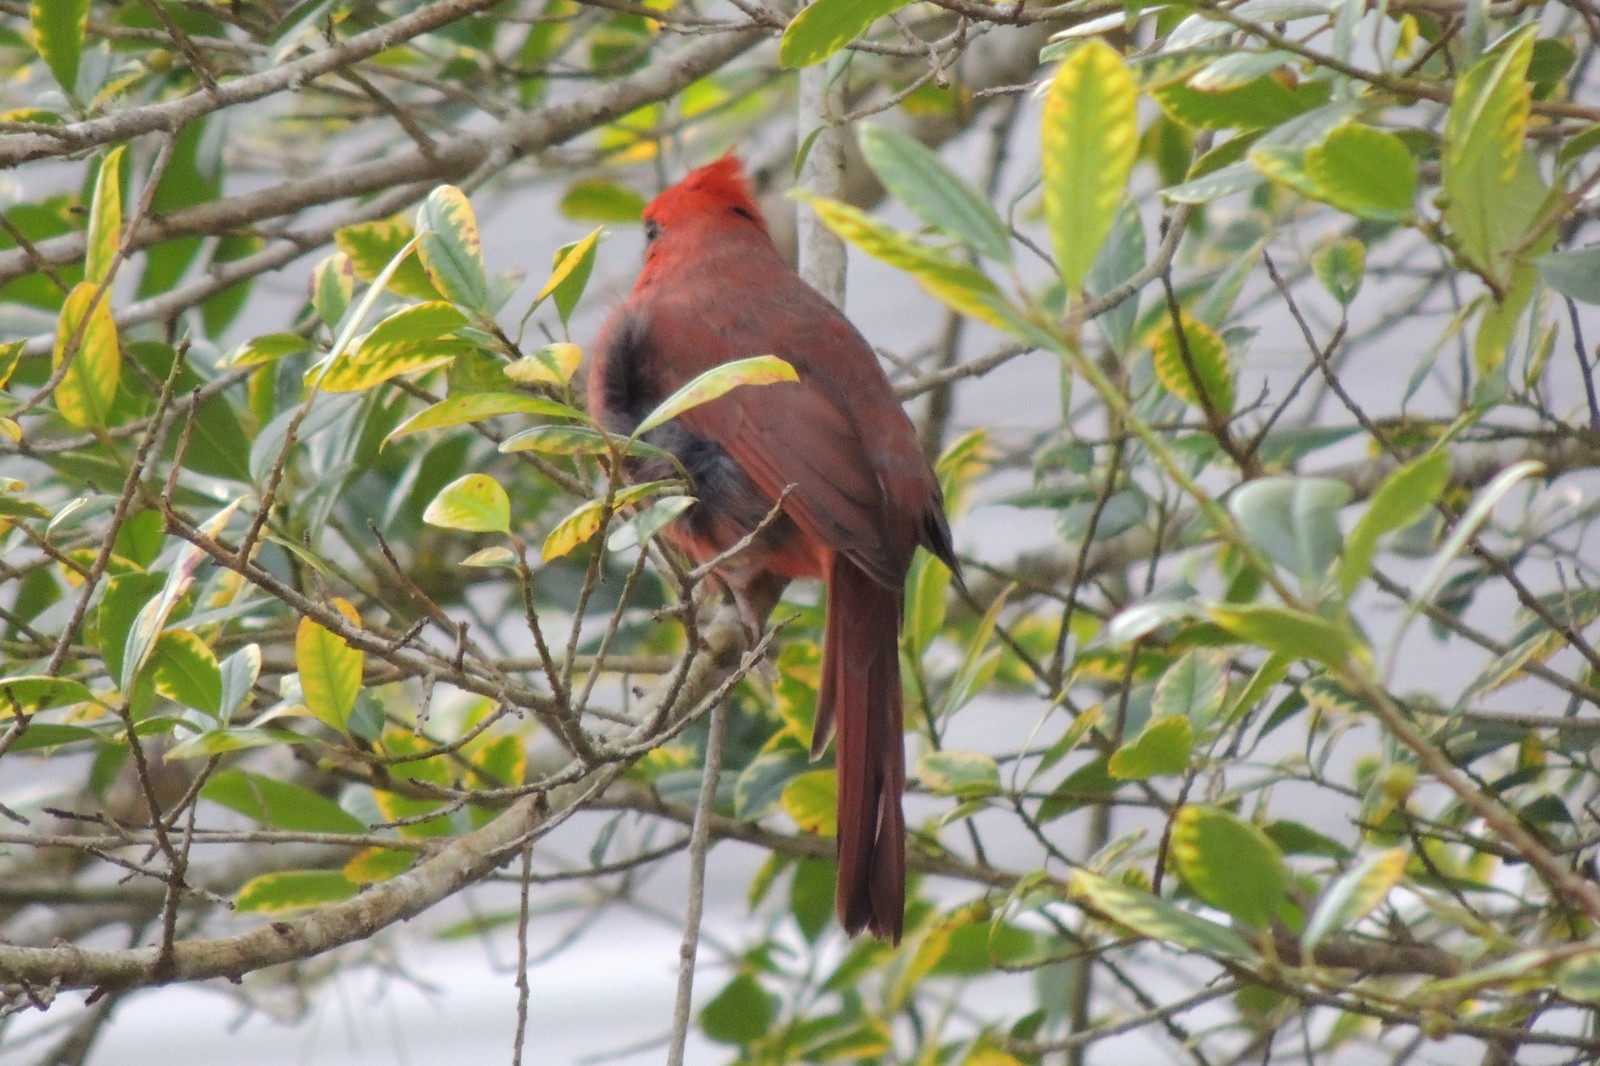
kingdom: Animalia
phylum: Chordata
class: Aves
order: Passeriformes
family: Cardinalidae
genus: Cardinalis
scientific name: Cardinalis cardinalis
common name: Northern cardinal
